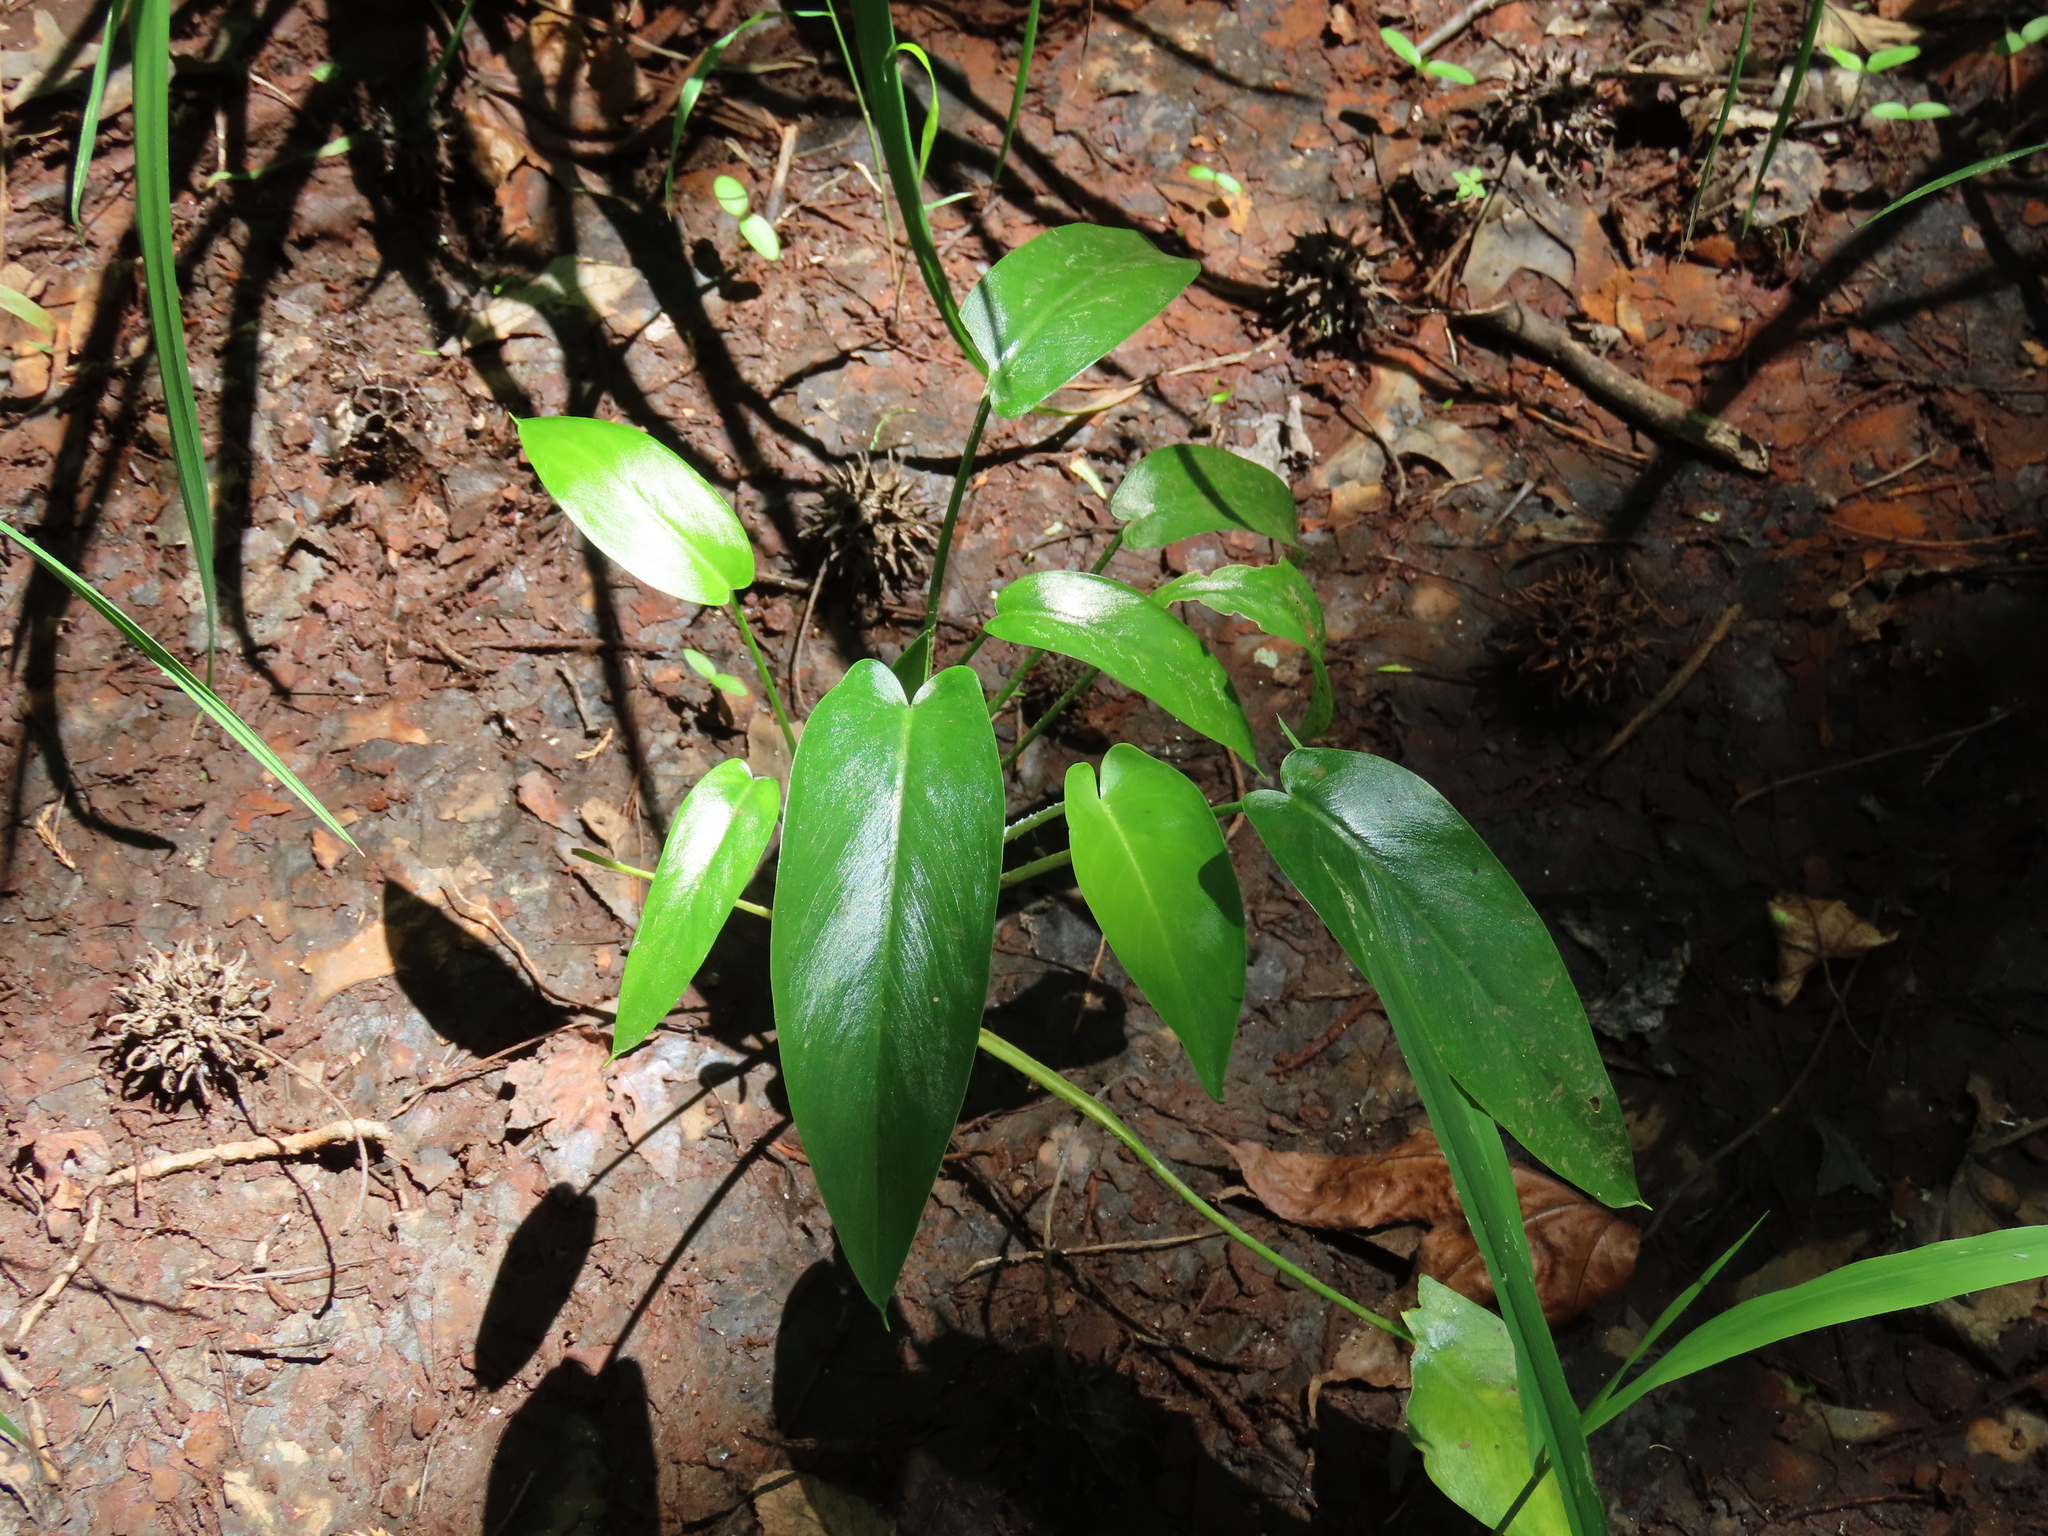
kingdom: Plantae
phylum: Tracheophyta
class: Liliopsida
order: Alismatales
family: Araceae
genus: Peltandra
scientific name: Peltandra virginica
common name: Arrow arum
